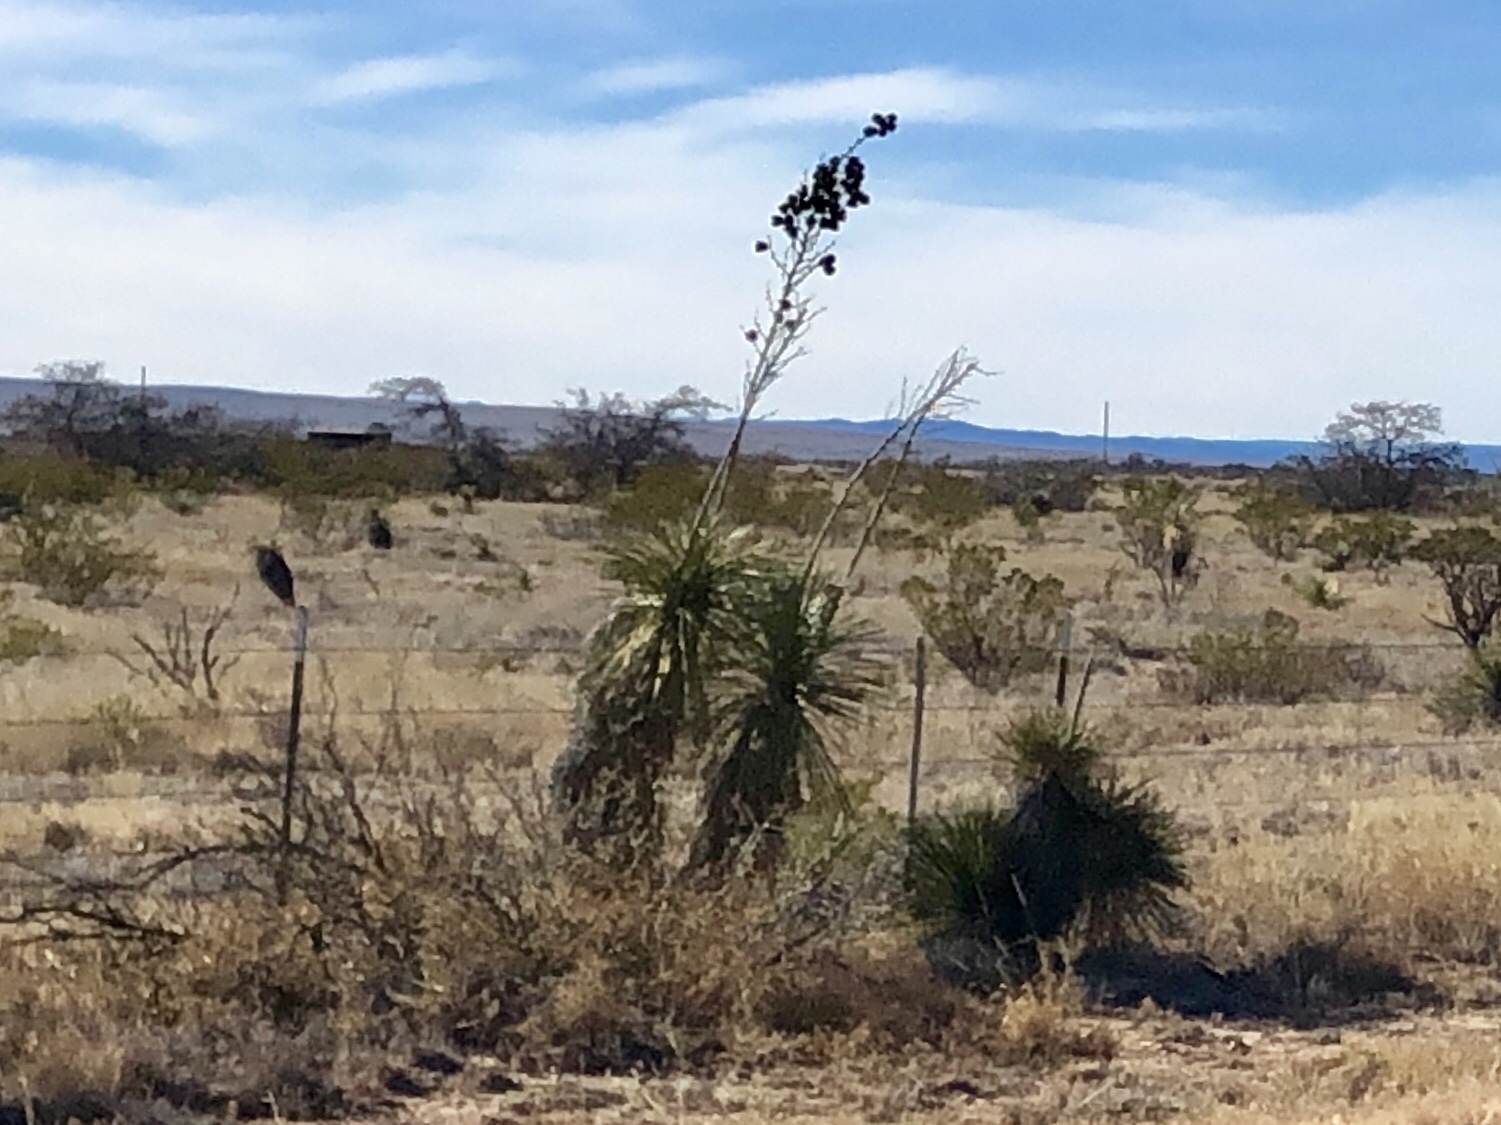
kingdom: Plantae
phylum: Tracheophyta
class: Liliopsida
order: Asparagales
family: Asparagaceae
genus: Yucca
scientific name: Yucca elata
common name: Palmella
